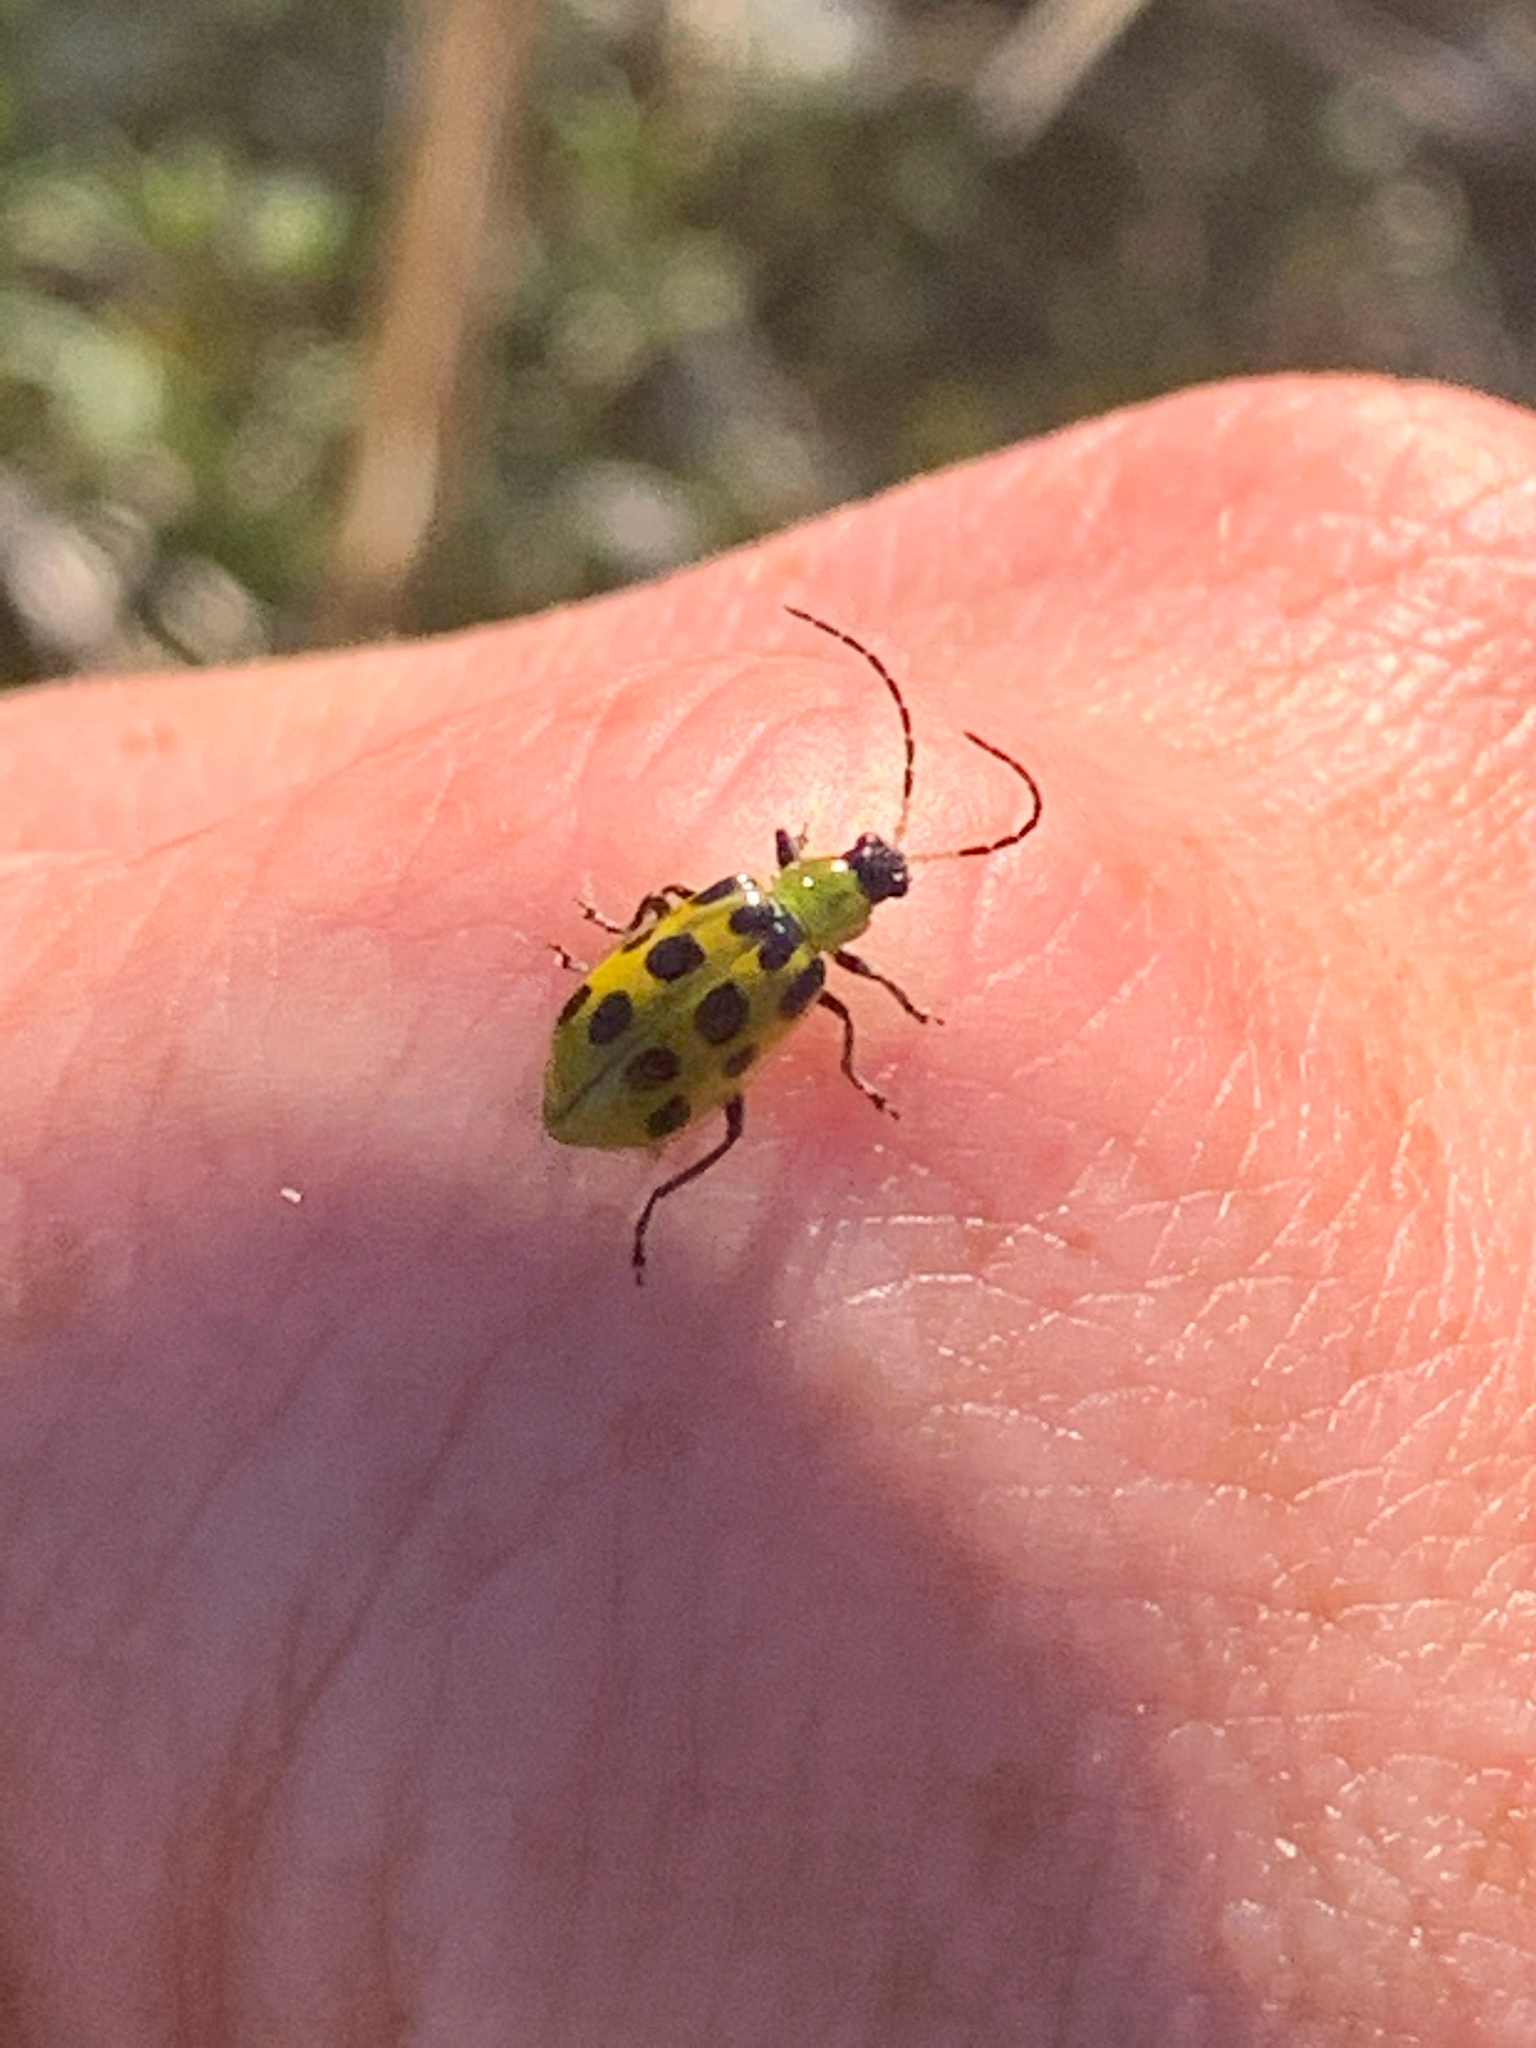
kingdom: Animalia
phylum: Arthropoda
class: Insecta
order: Coleoptera
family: Chrysomelidae
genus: Diabrotica
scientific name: Diabrotica undecimpunctata
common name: Spotted cucumber beetle
